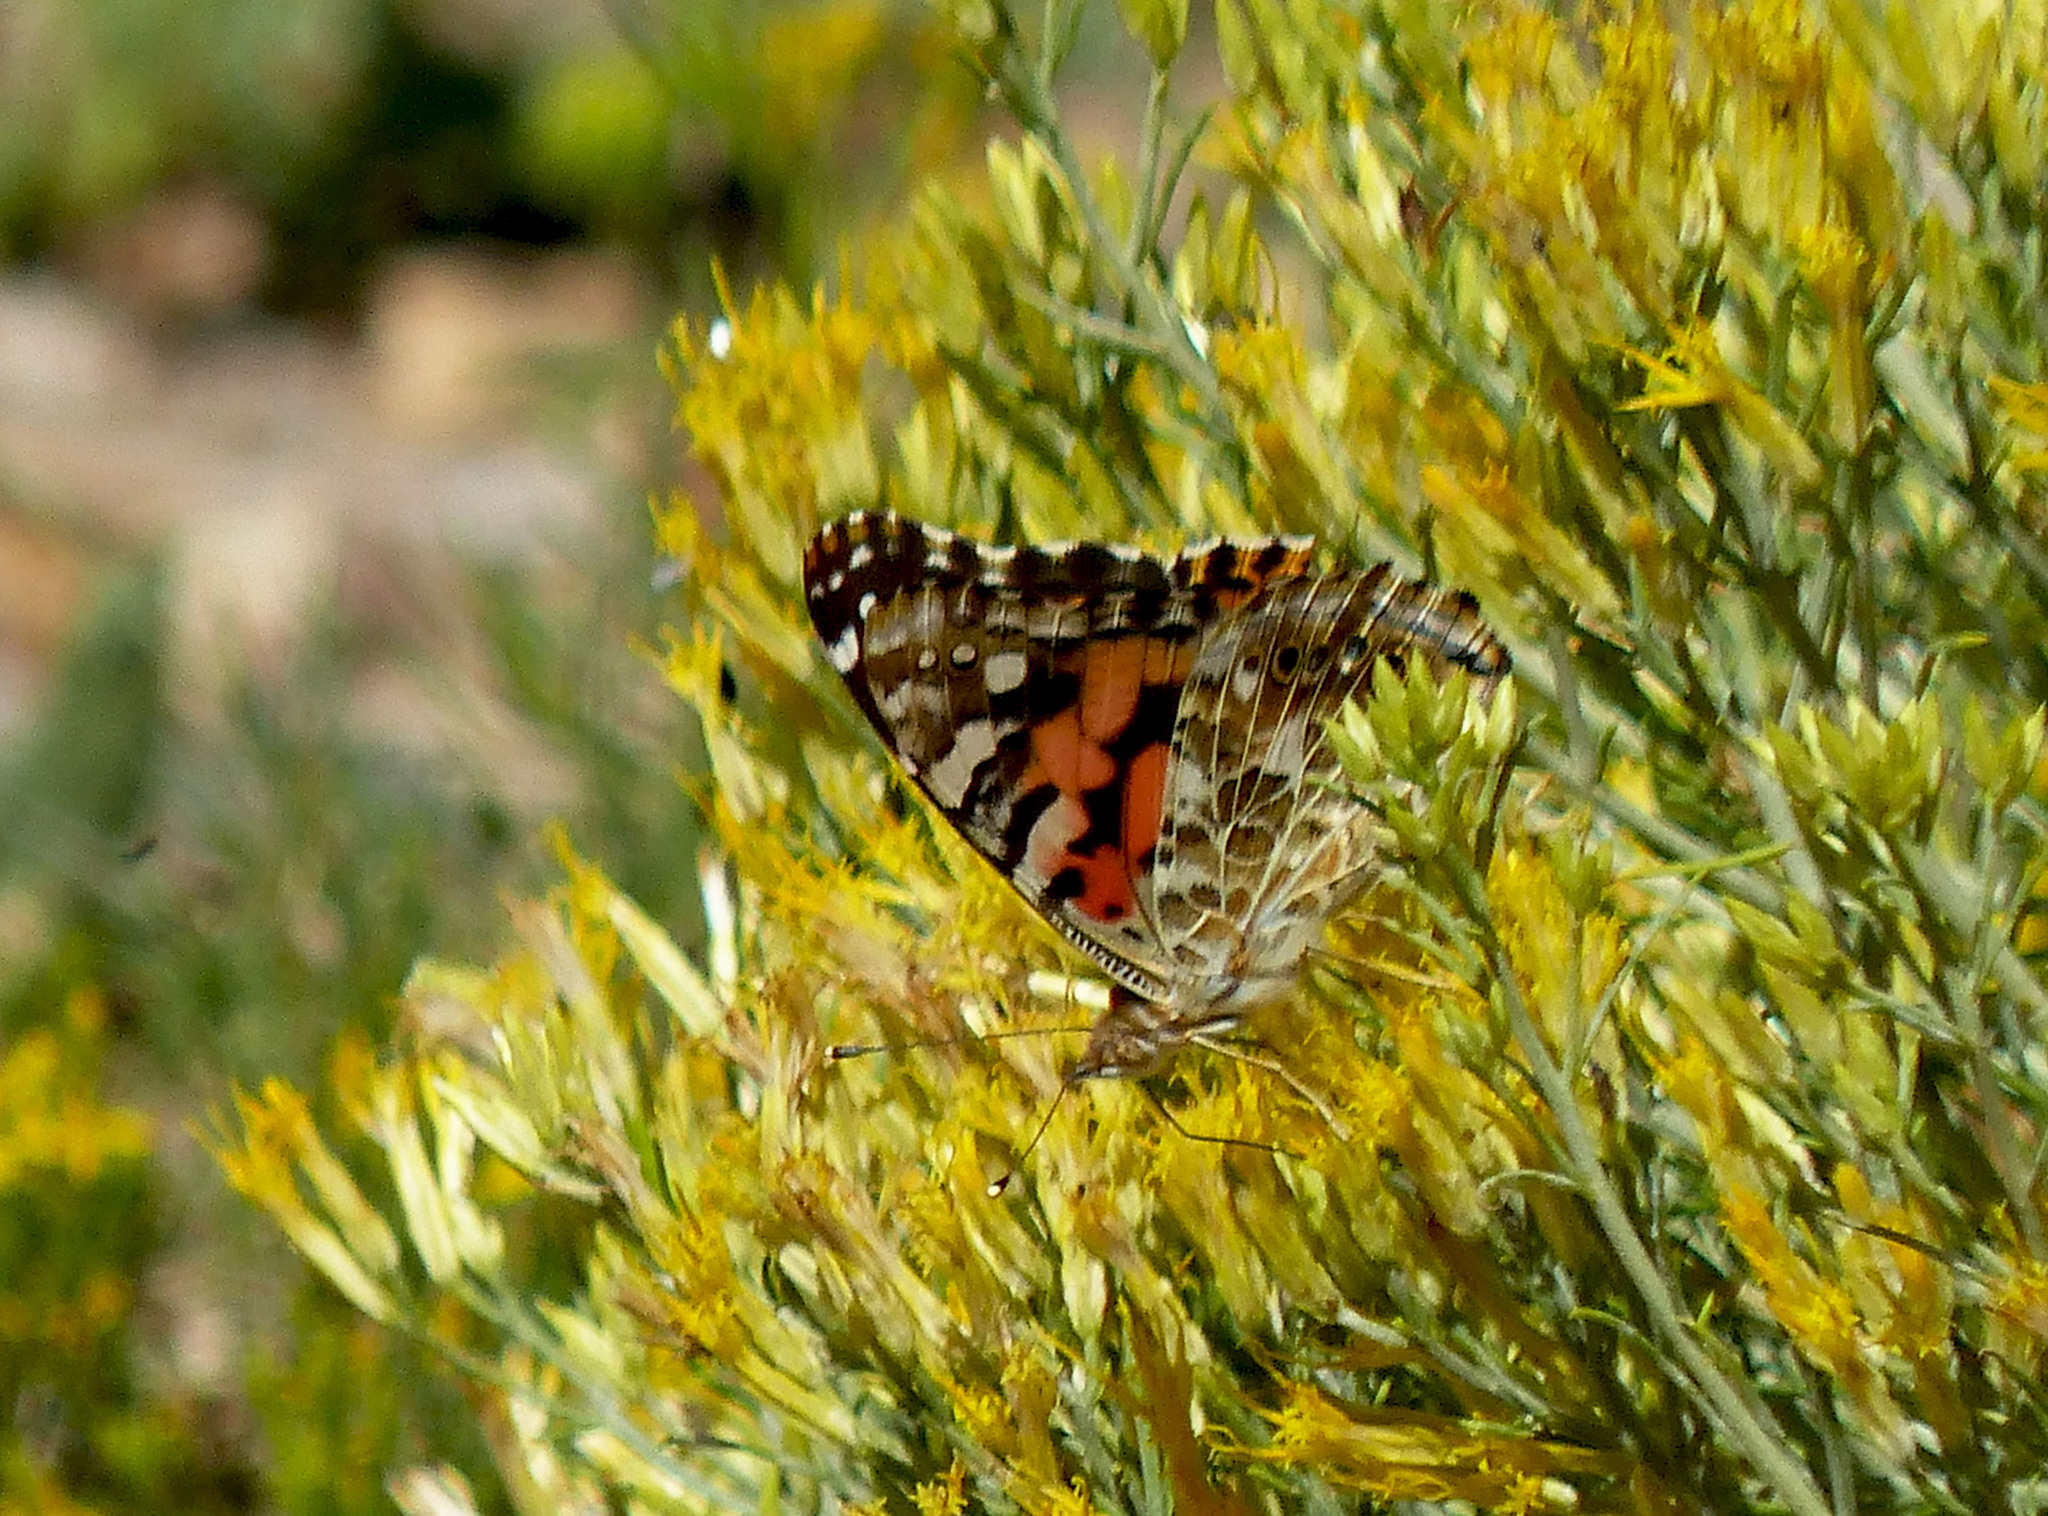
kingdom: Animalia
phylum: Arthropoda
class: Insecta
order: Lepidoptera
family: Nymphalidae
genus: Vanessa
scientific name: Vanessa cardui
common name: Painted lady
